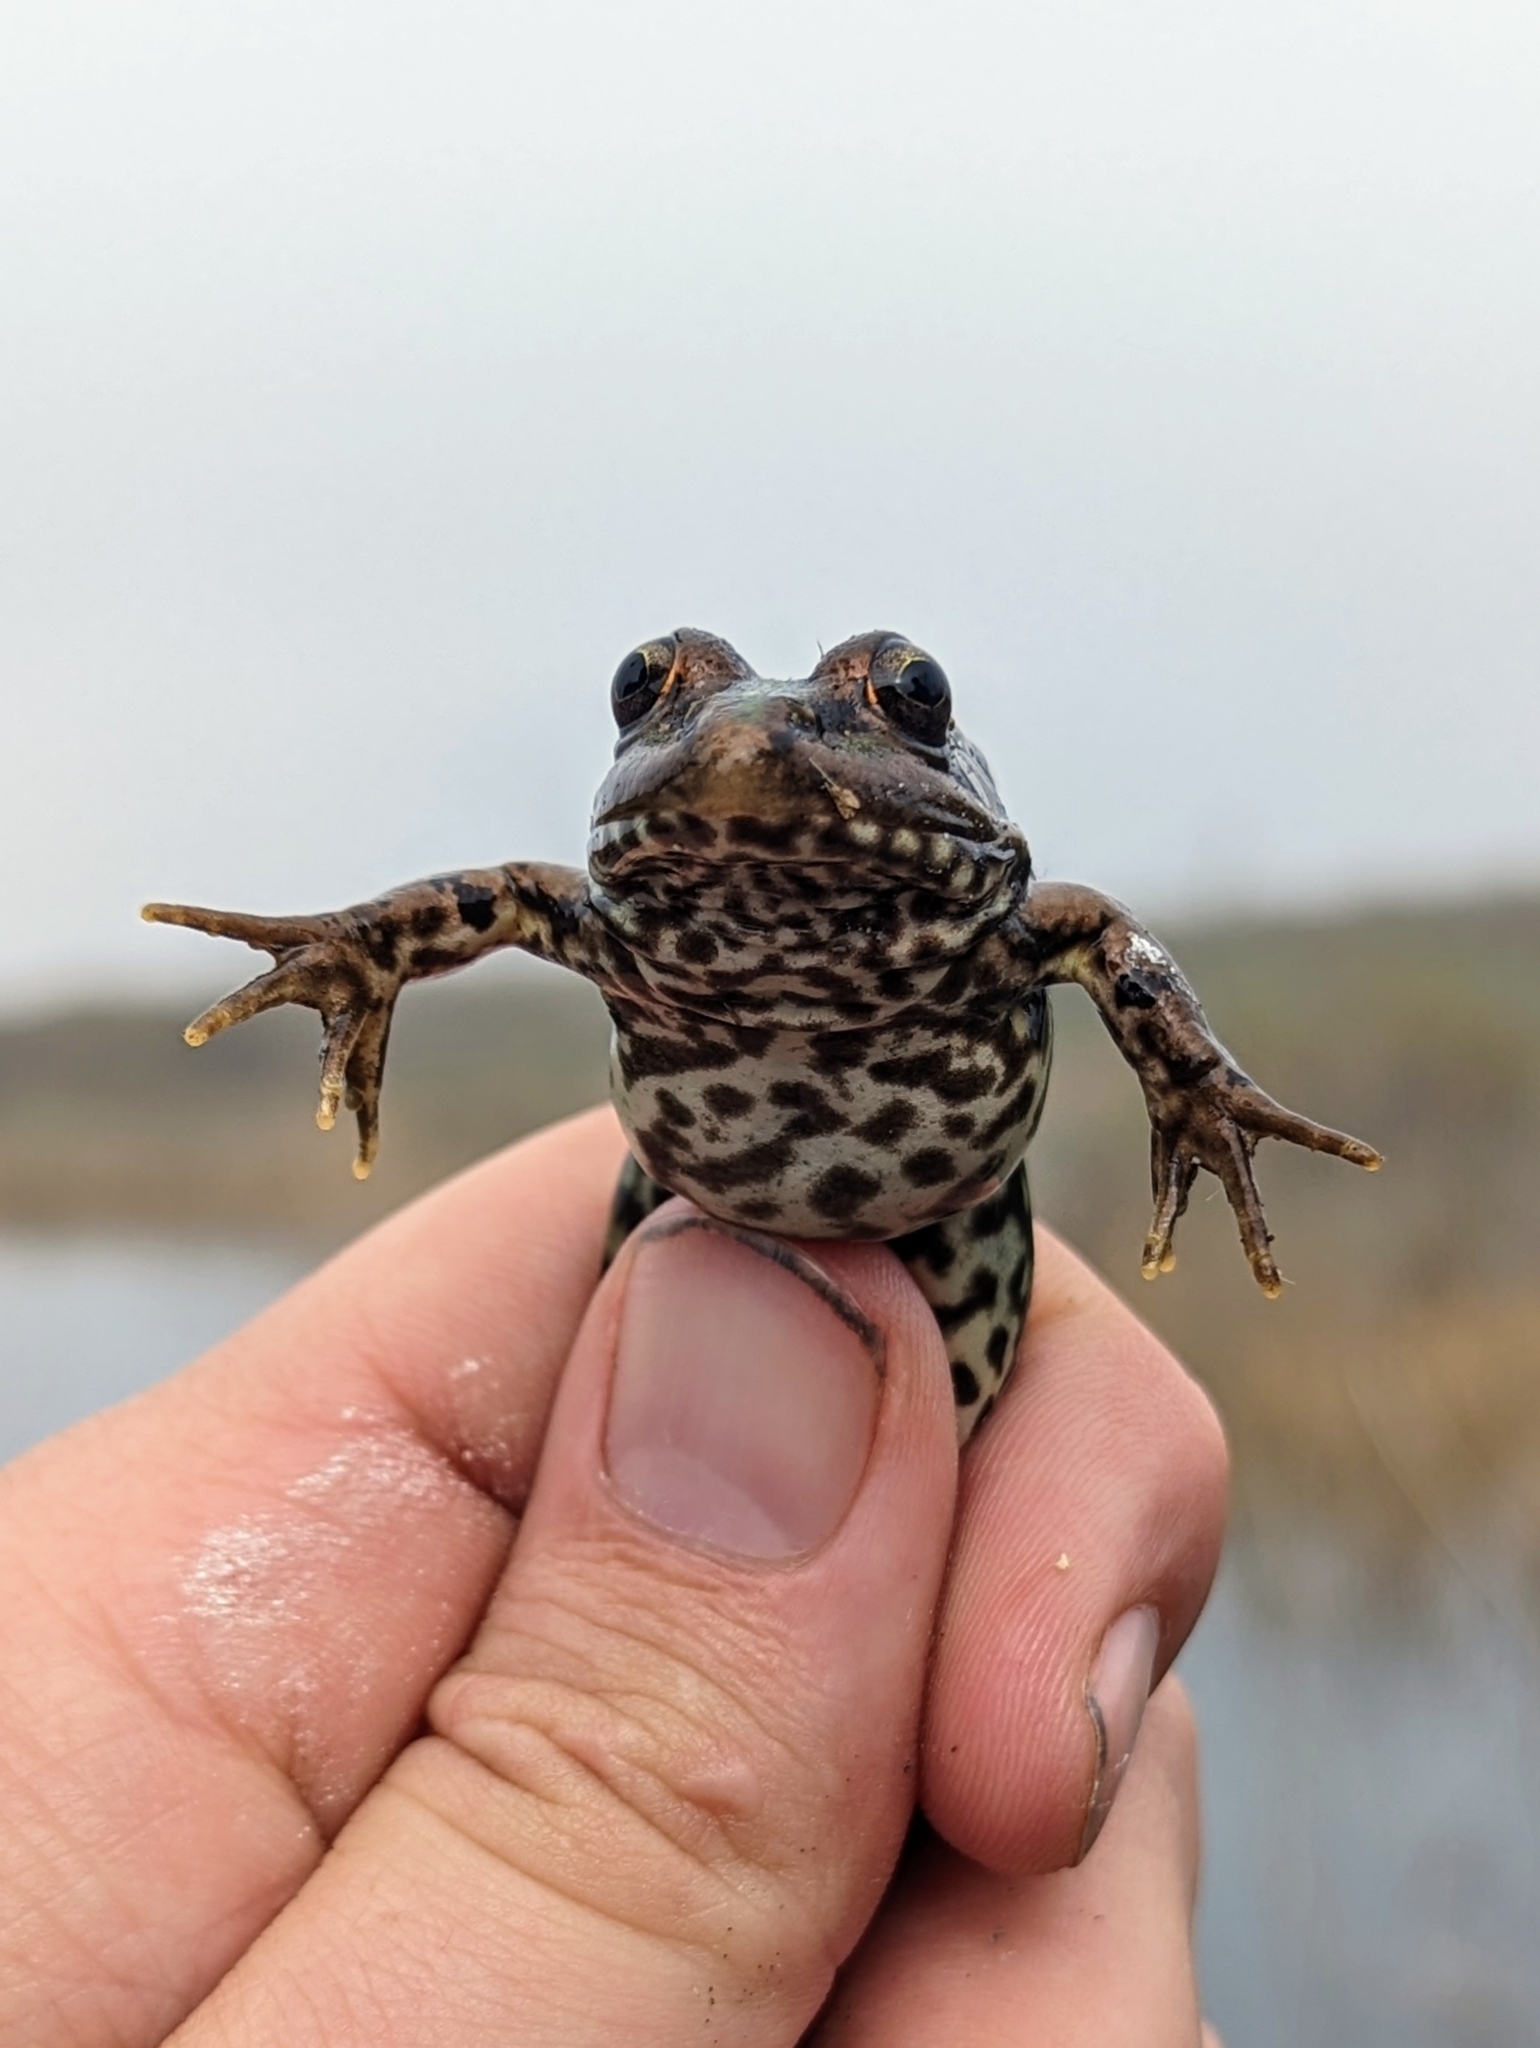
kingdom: Animalia
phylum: Chordata
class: Amphibia
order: Anura
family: Ranidae
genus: Pelophylax
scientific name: Pelophylax perezi
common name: Perez's frog
